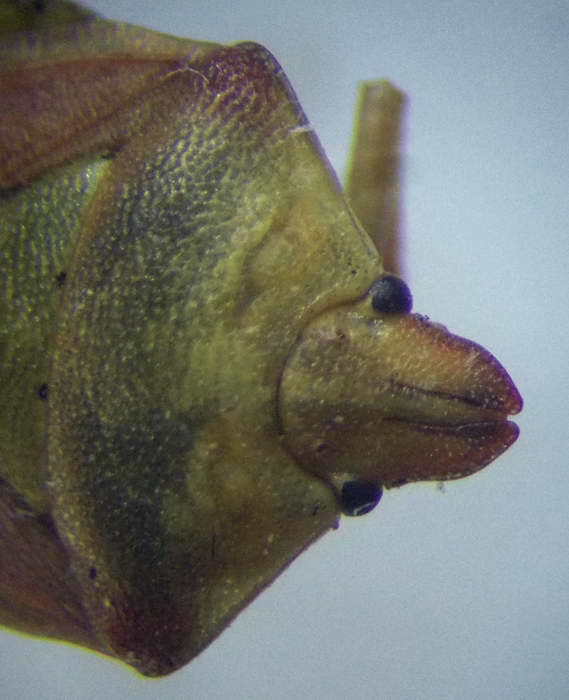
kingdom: Animalia
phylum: Arthropoda
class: Insecta
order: Hemiptera
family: Pentatomidae
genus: Antheminia
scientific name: Antheminia lunulata
